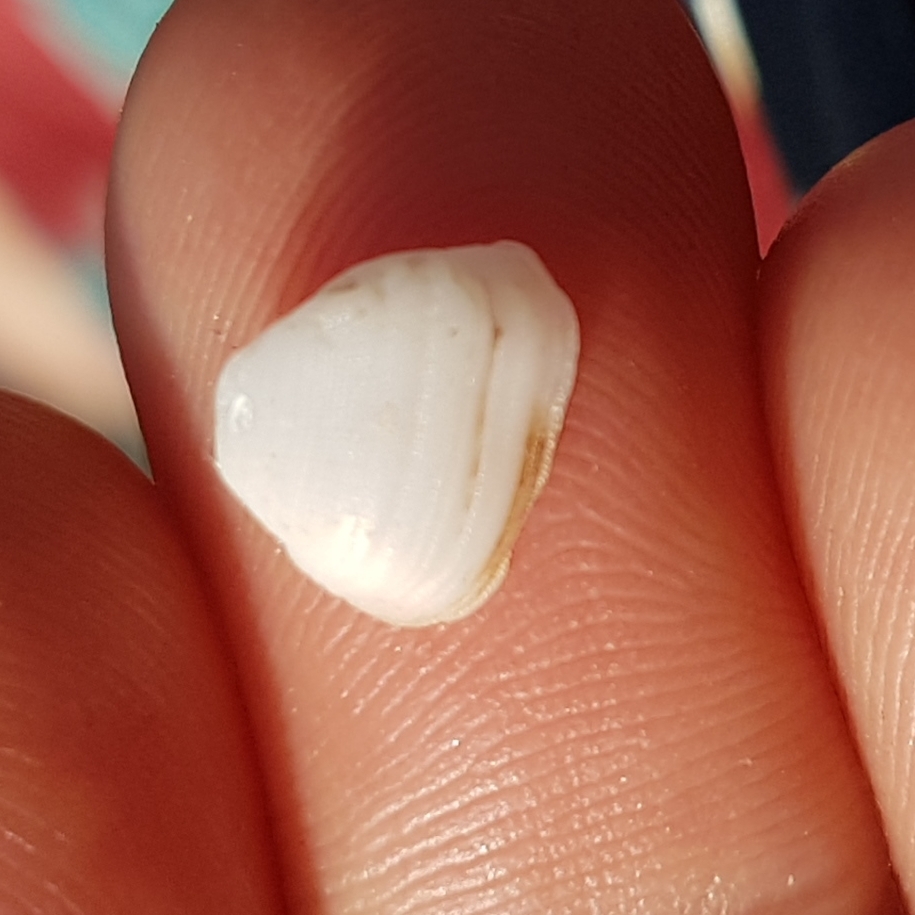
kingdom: Animalia
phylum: Mollusca
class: Bivalvia
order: Arcida
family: Noetiidae
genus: Striarca
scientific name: Striarca lactea
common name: Milky-white ark
